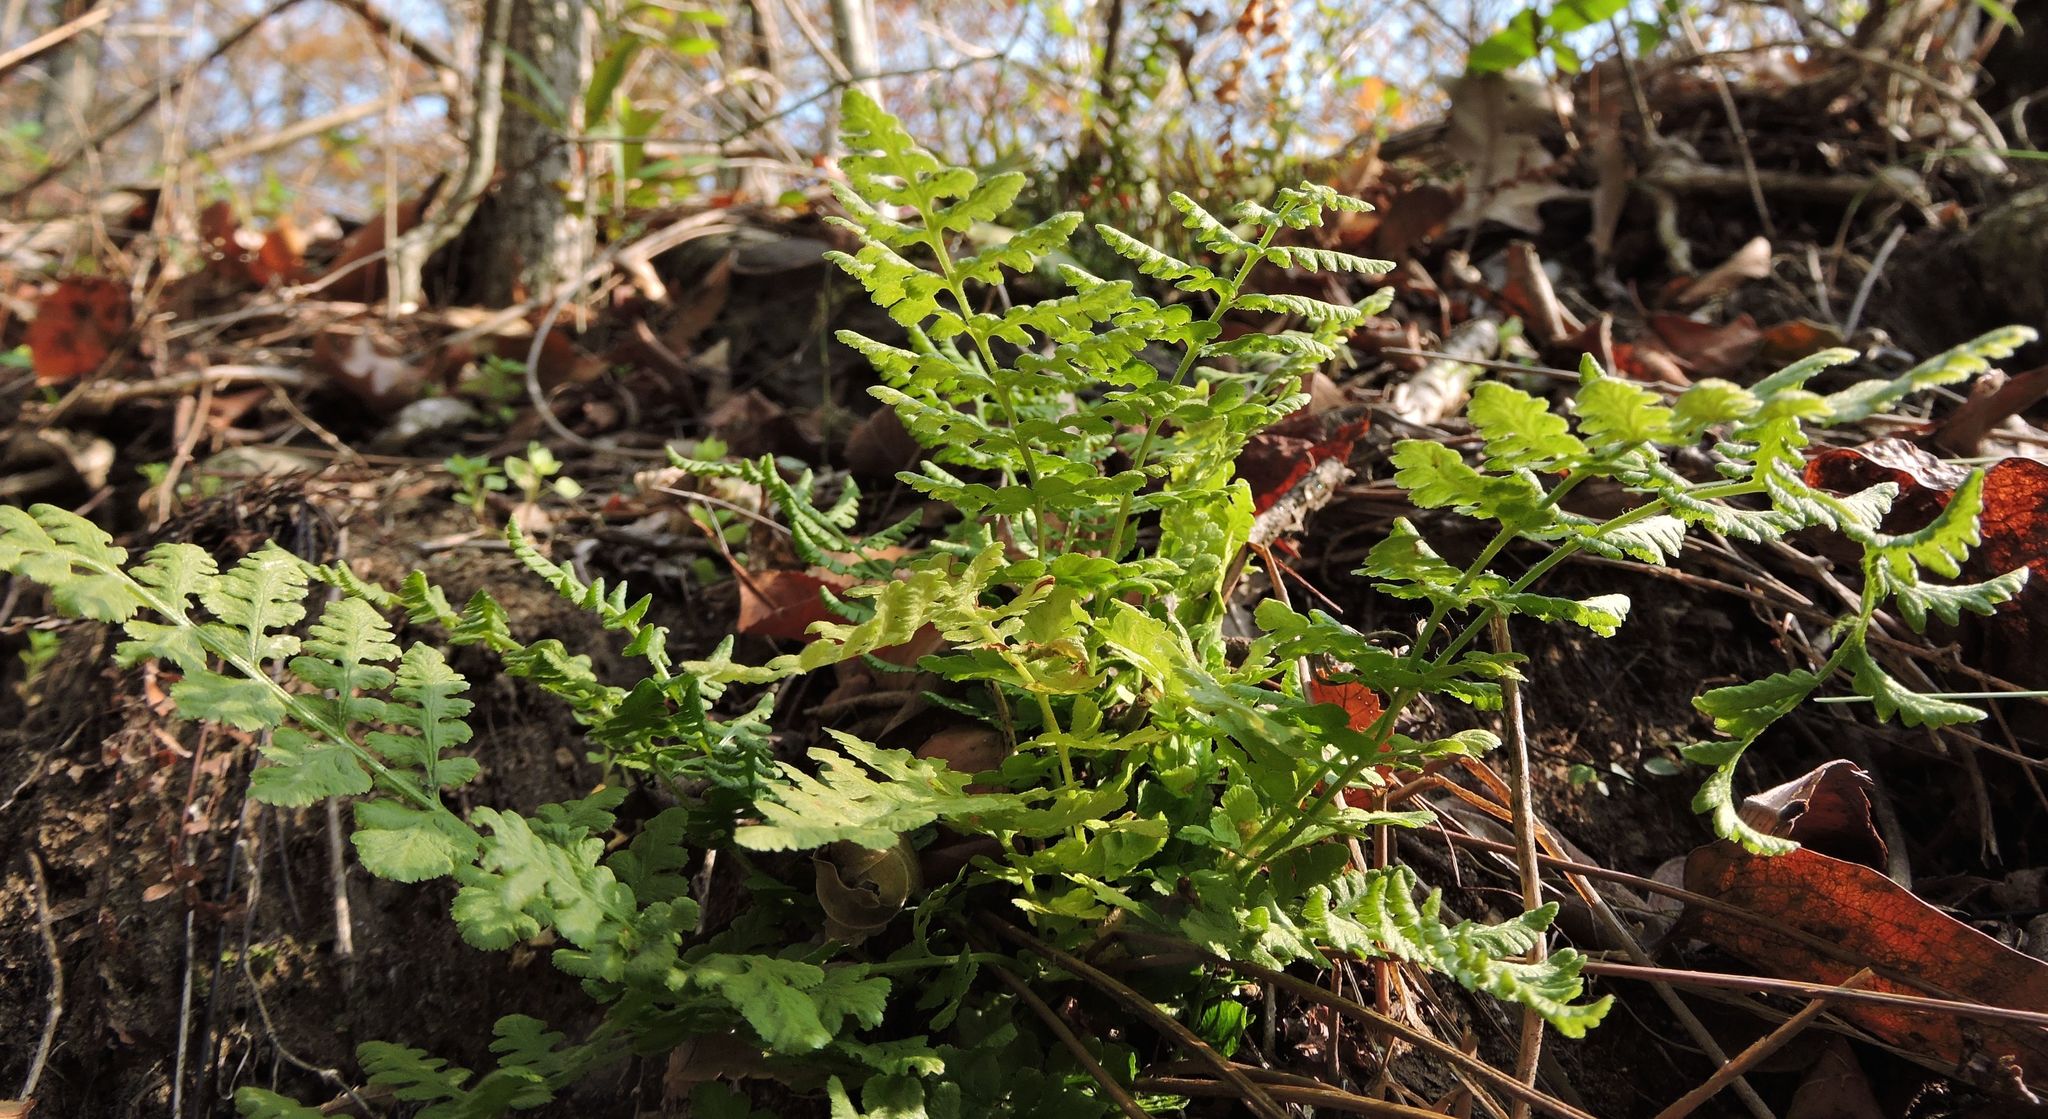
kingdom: Plantae
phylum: Tracheophyta
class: Polypodiopsida
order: Polypodiales
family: Woodsiaceae
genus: Physematium
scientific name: Physematium obtusum
